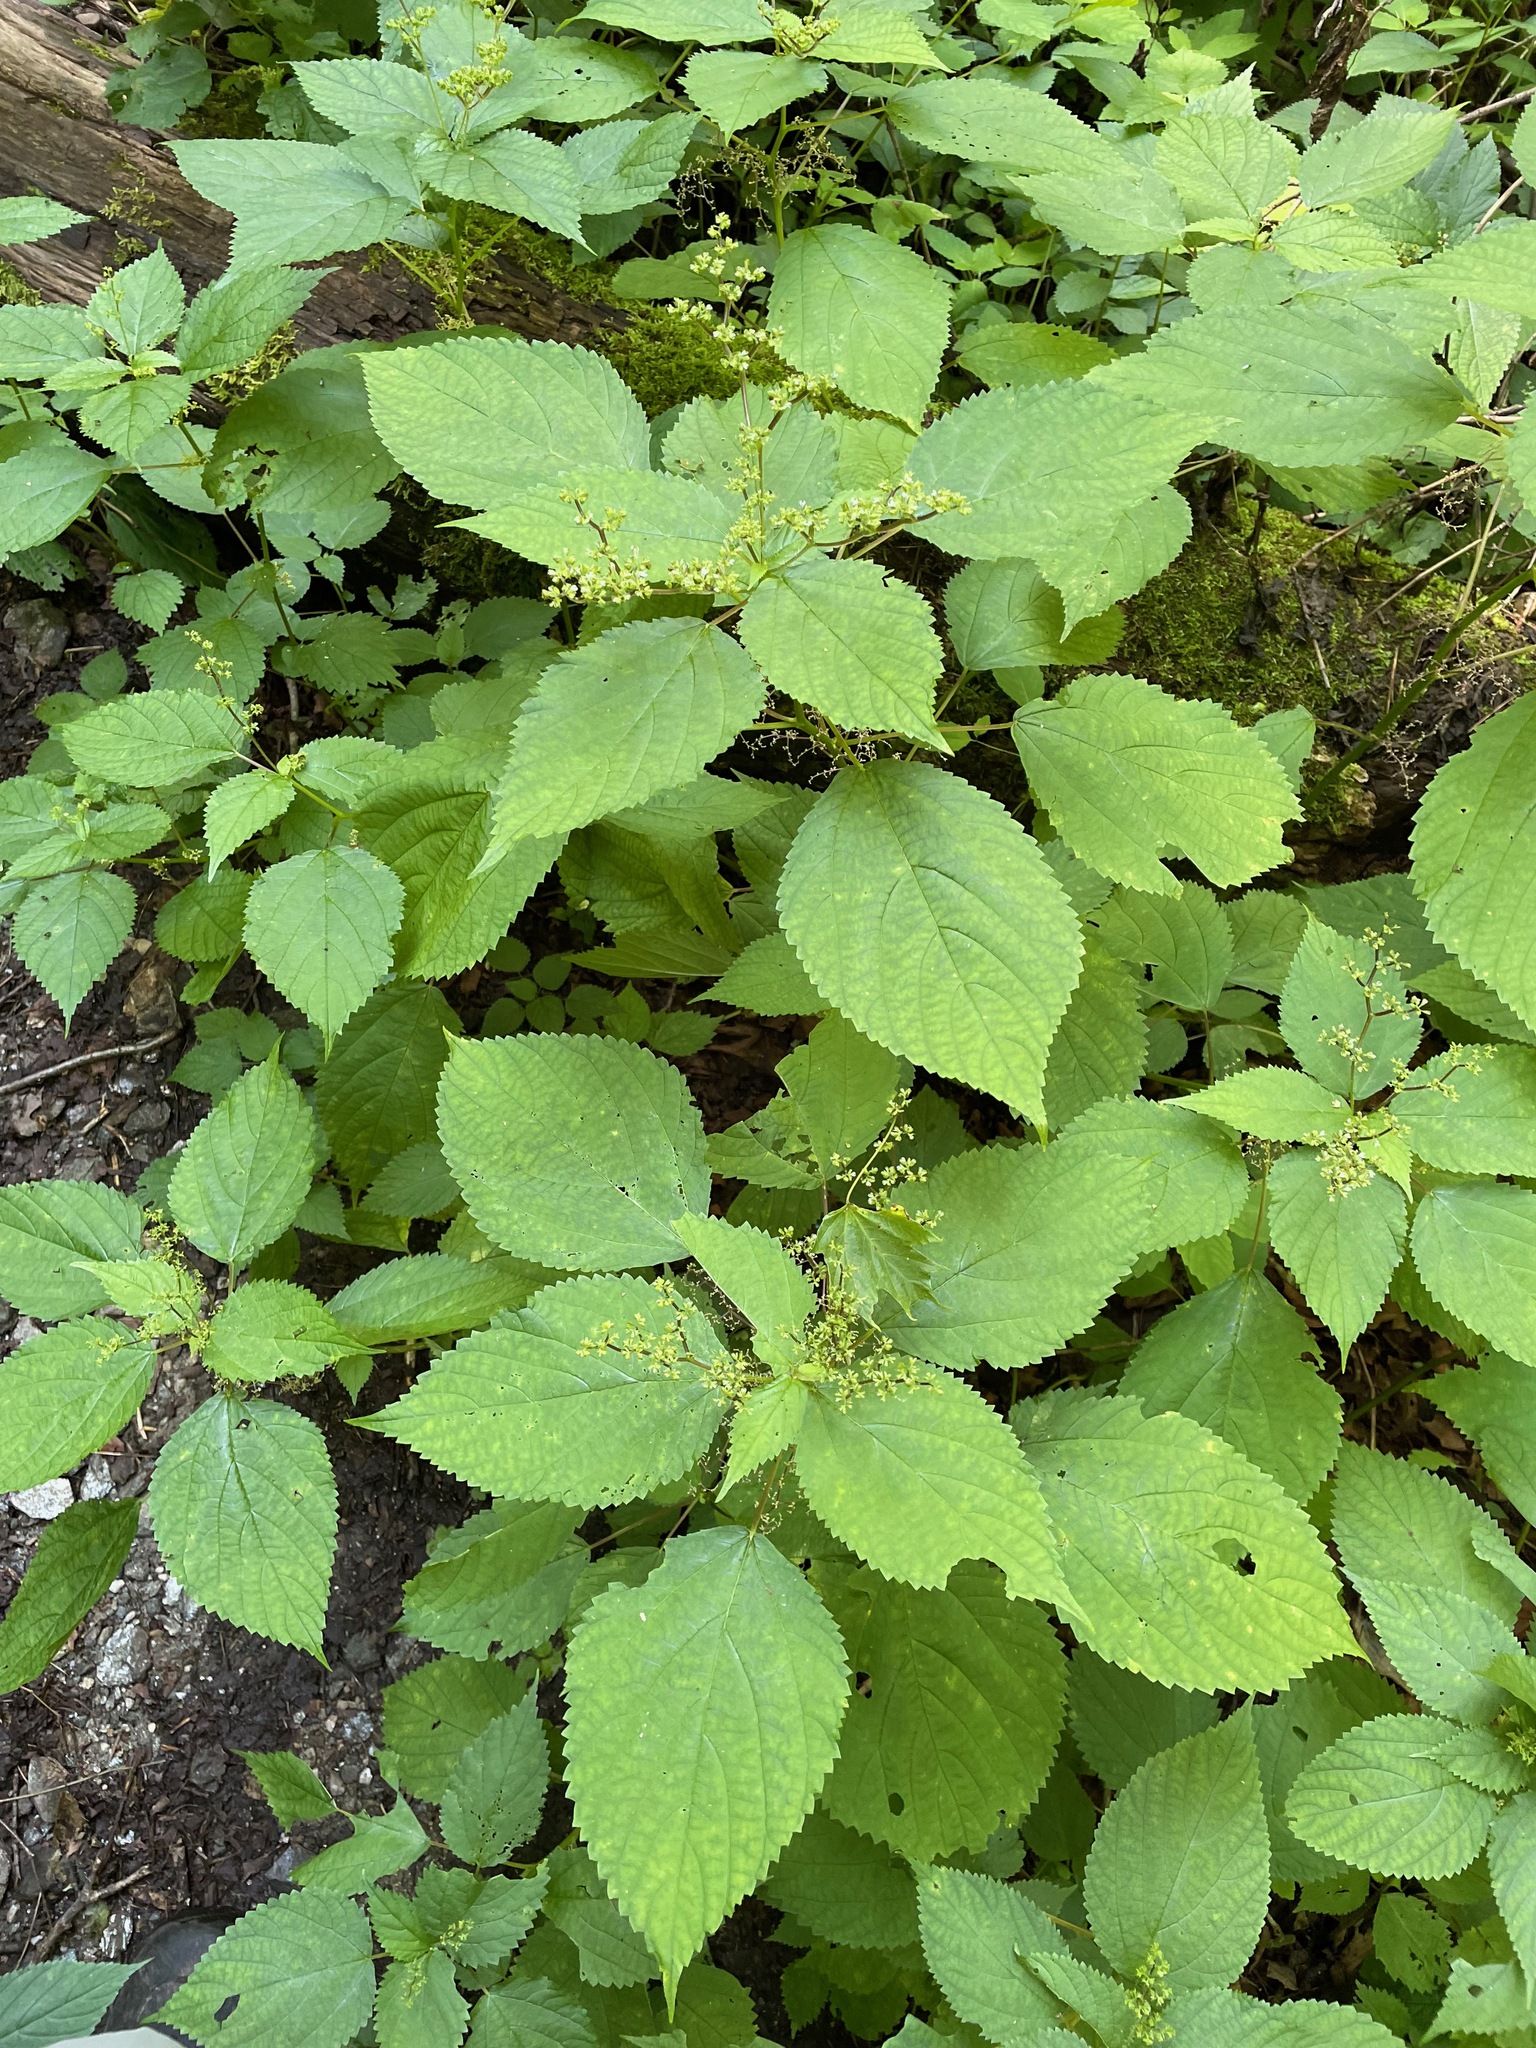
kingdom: Plantae
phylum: Tracheophyta
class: Magnoliopsida
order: Rosales
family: Urticaceae
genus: Laportea
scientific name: Laportea canadensis
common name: Canada nettle
